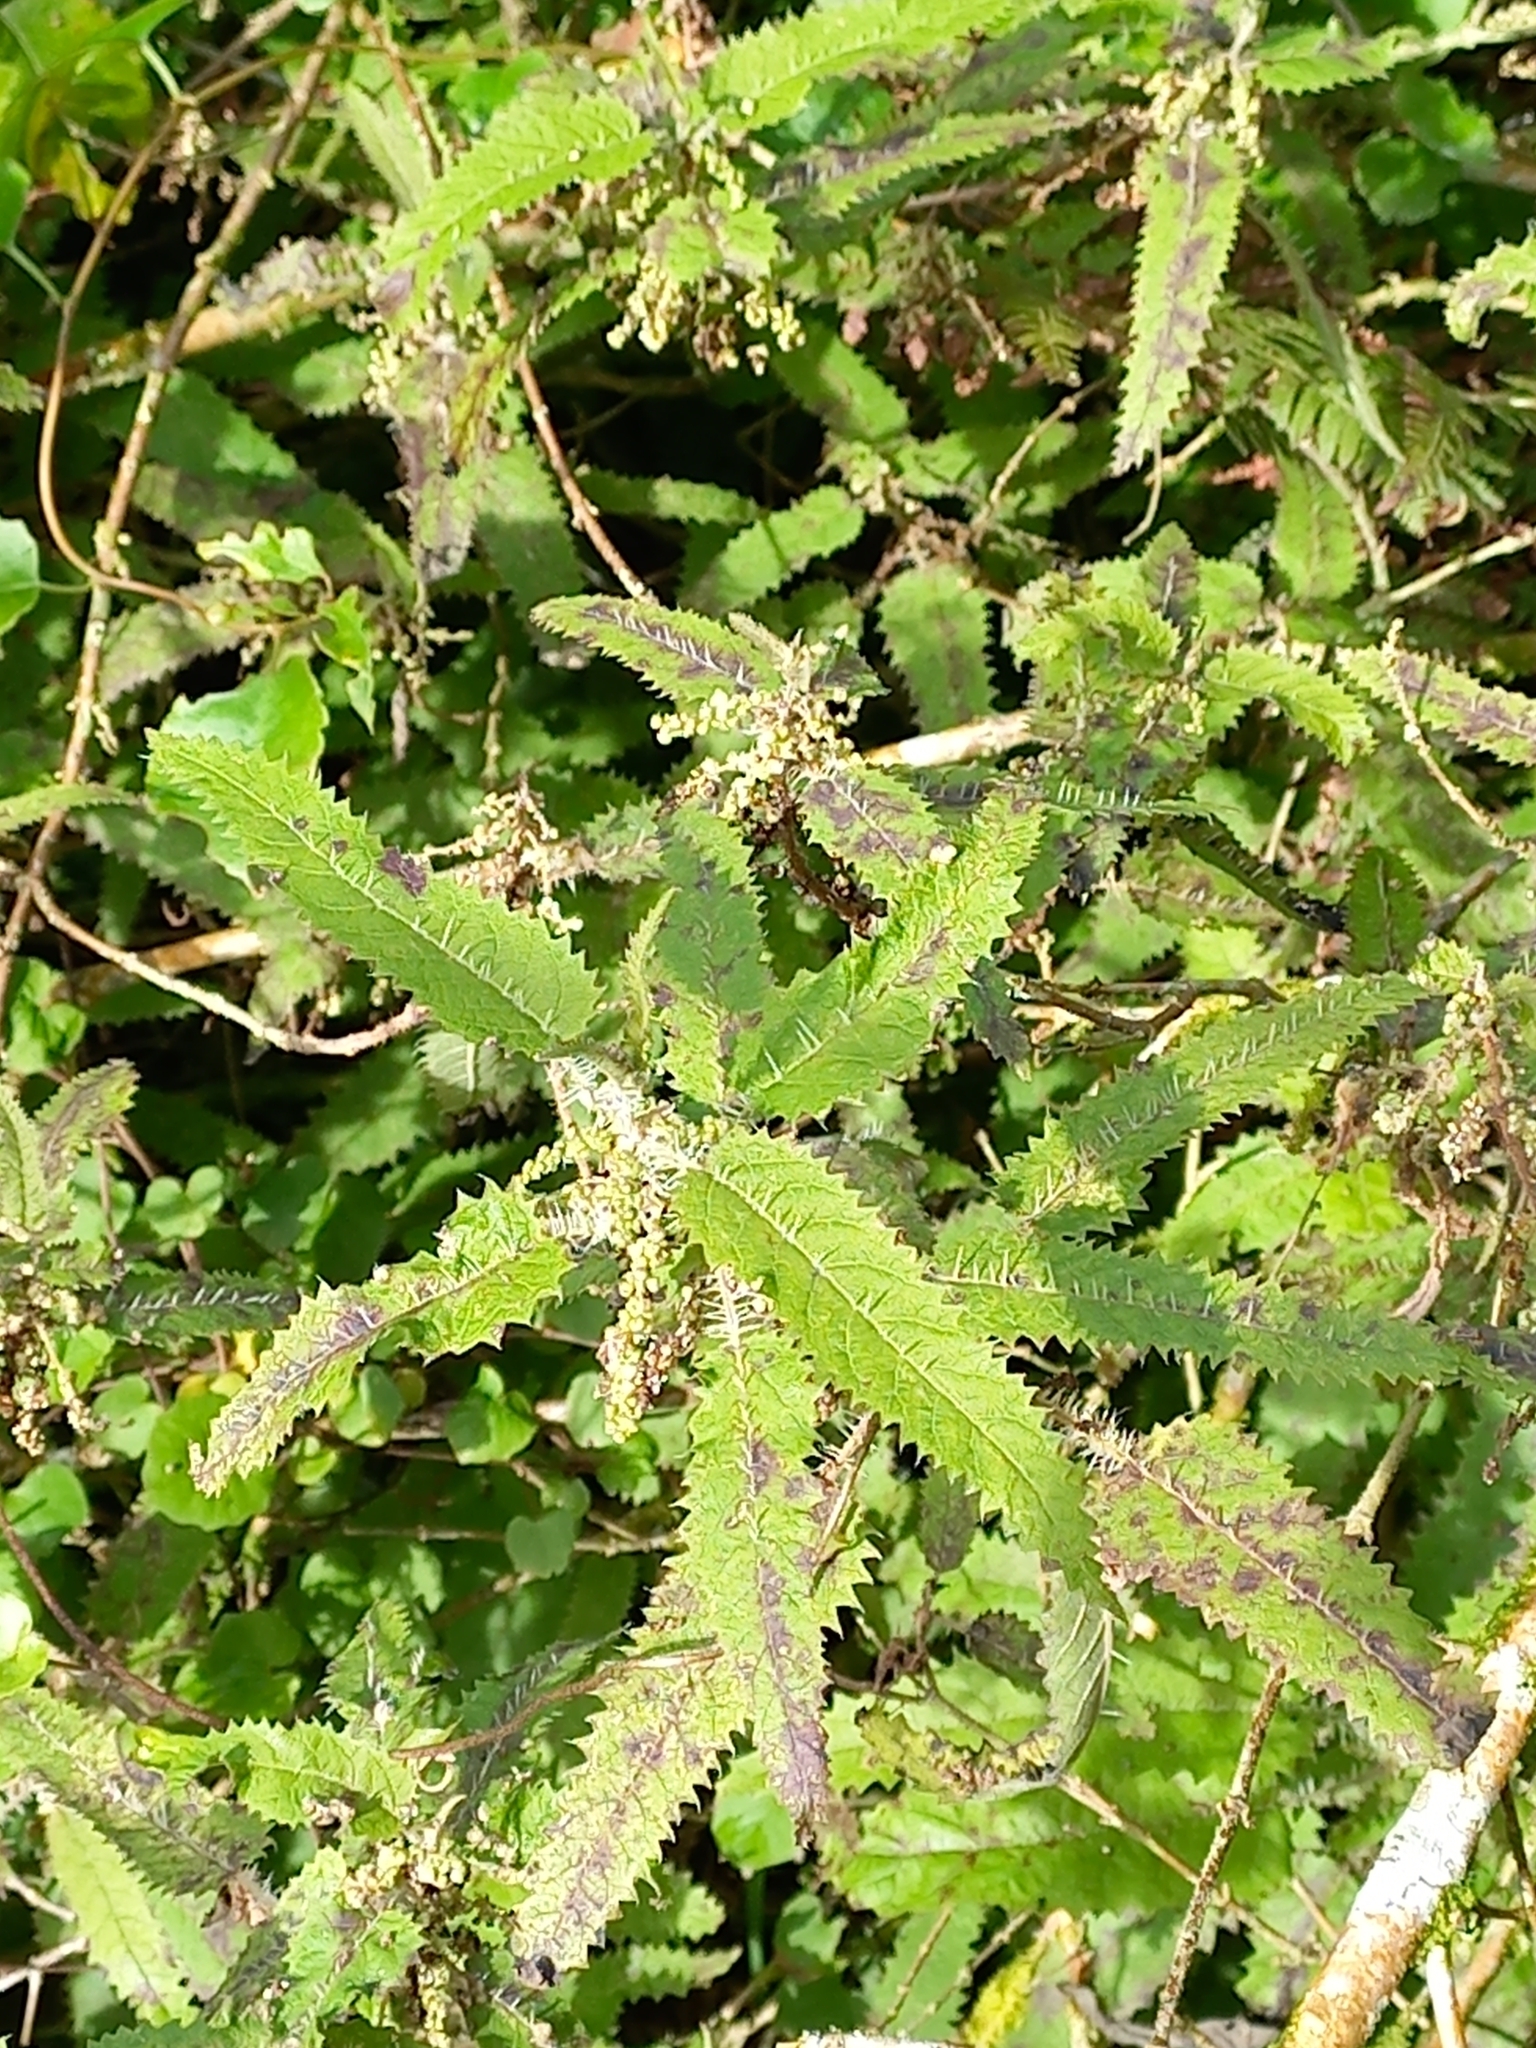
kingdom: Plantae
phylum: Tracheophyta
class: Magnoliopsida
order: Rosales
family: Urticaceae
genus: Urtica
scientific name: Urtica ferox
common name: Tree nettle
